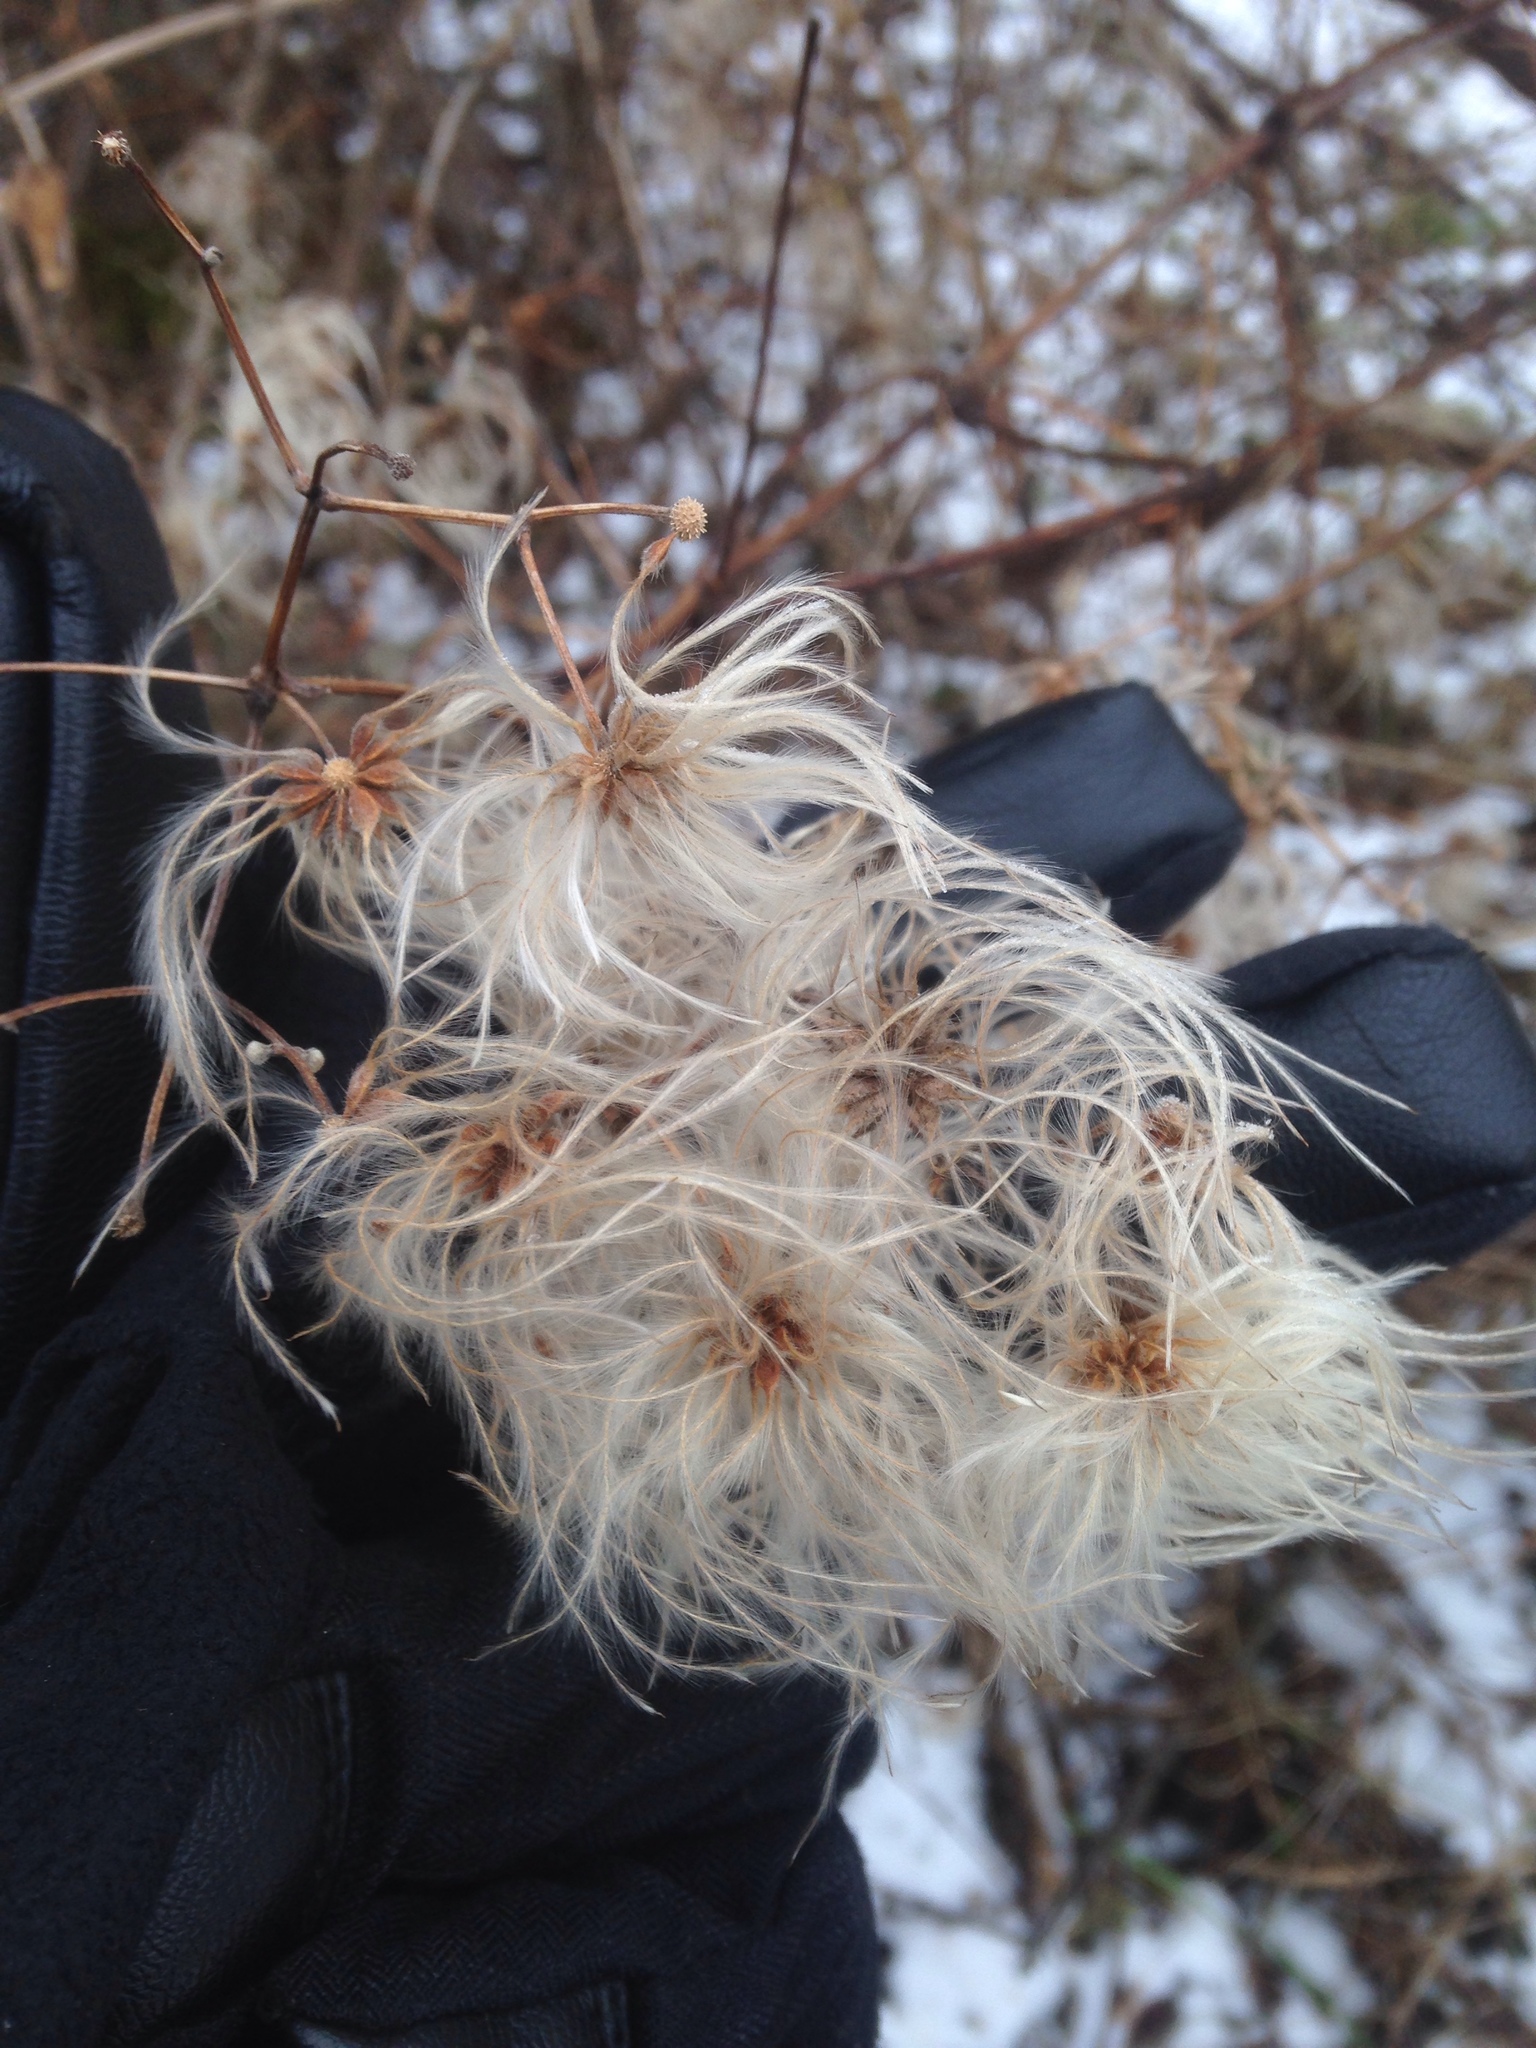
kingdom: Plantae
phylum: Tracheophyta
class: Magnoliopsida
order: Ranunculales
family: Ranunculaceae
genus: Clematis
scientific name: Clematis virginiana
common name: Virgin's-bower
